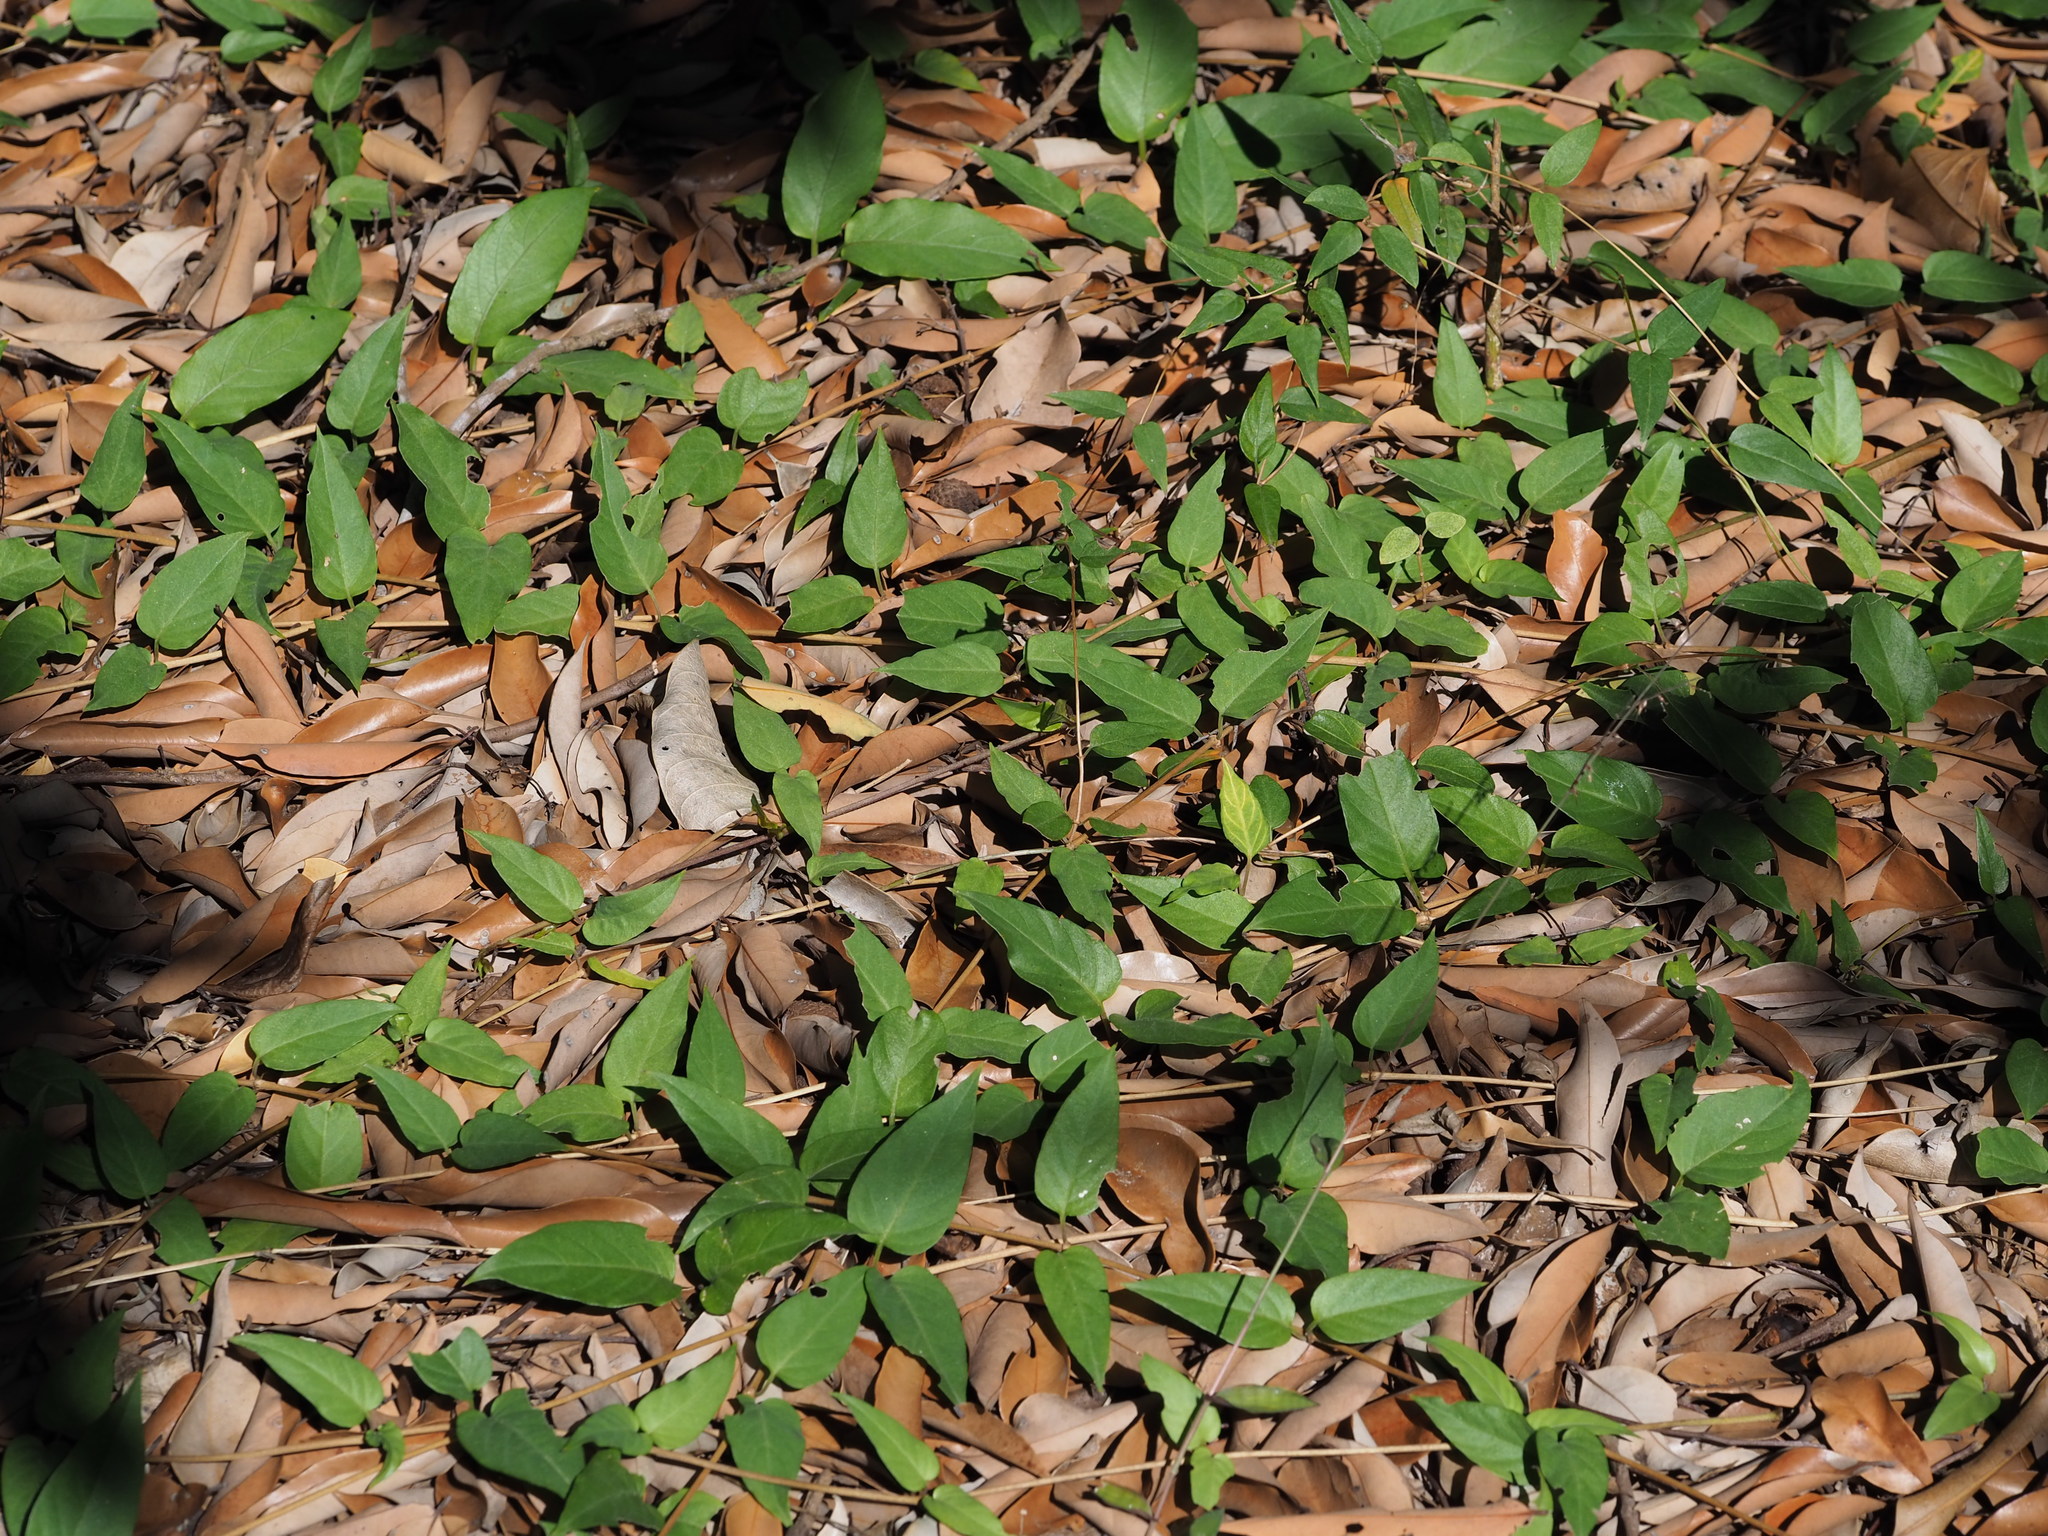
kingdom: Plantae
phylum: Tracheophyta
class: Magnoliopsida
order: Gentianales
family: Rubiaceae
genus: Paederia
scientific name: Paederia foetida
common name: Stinkvine
